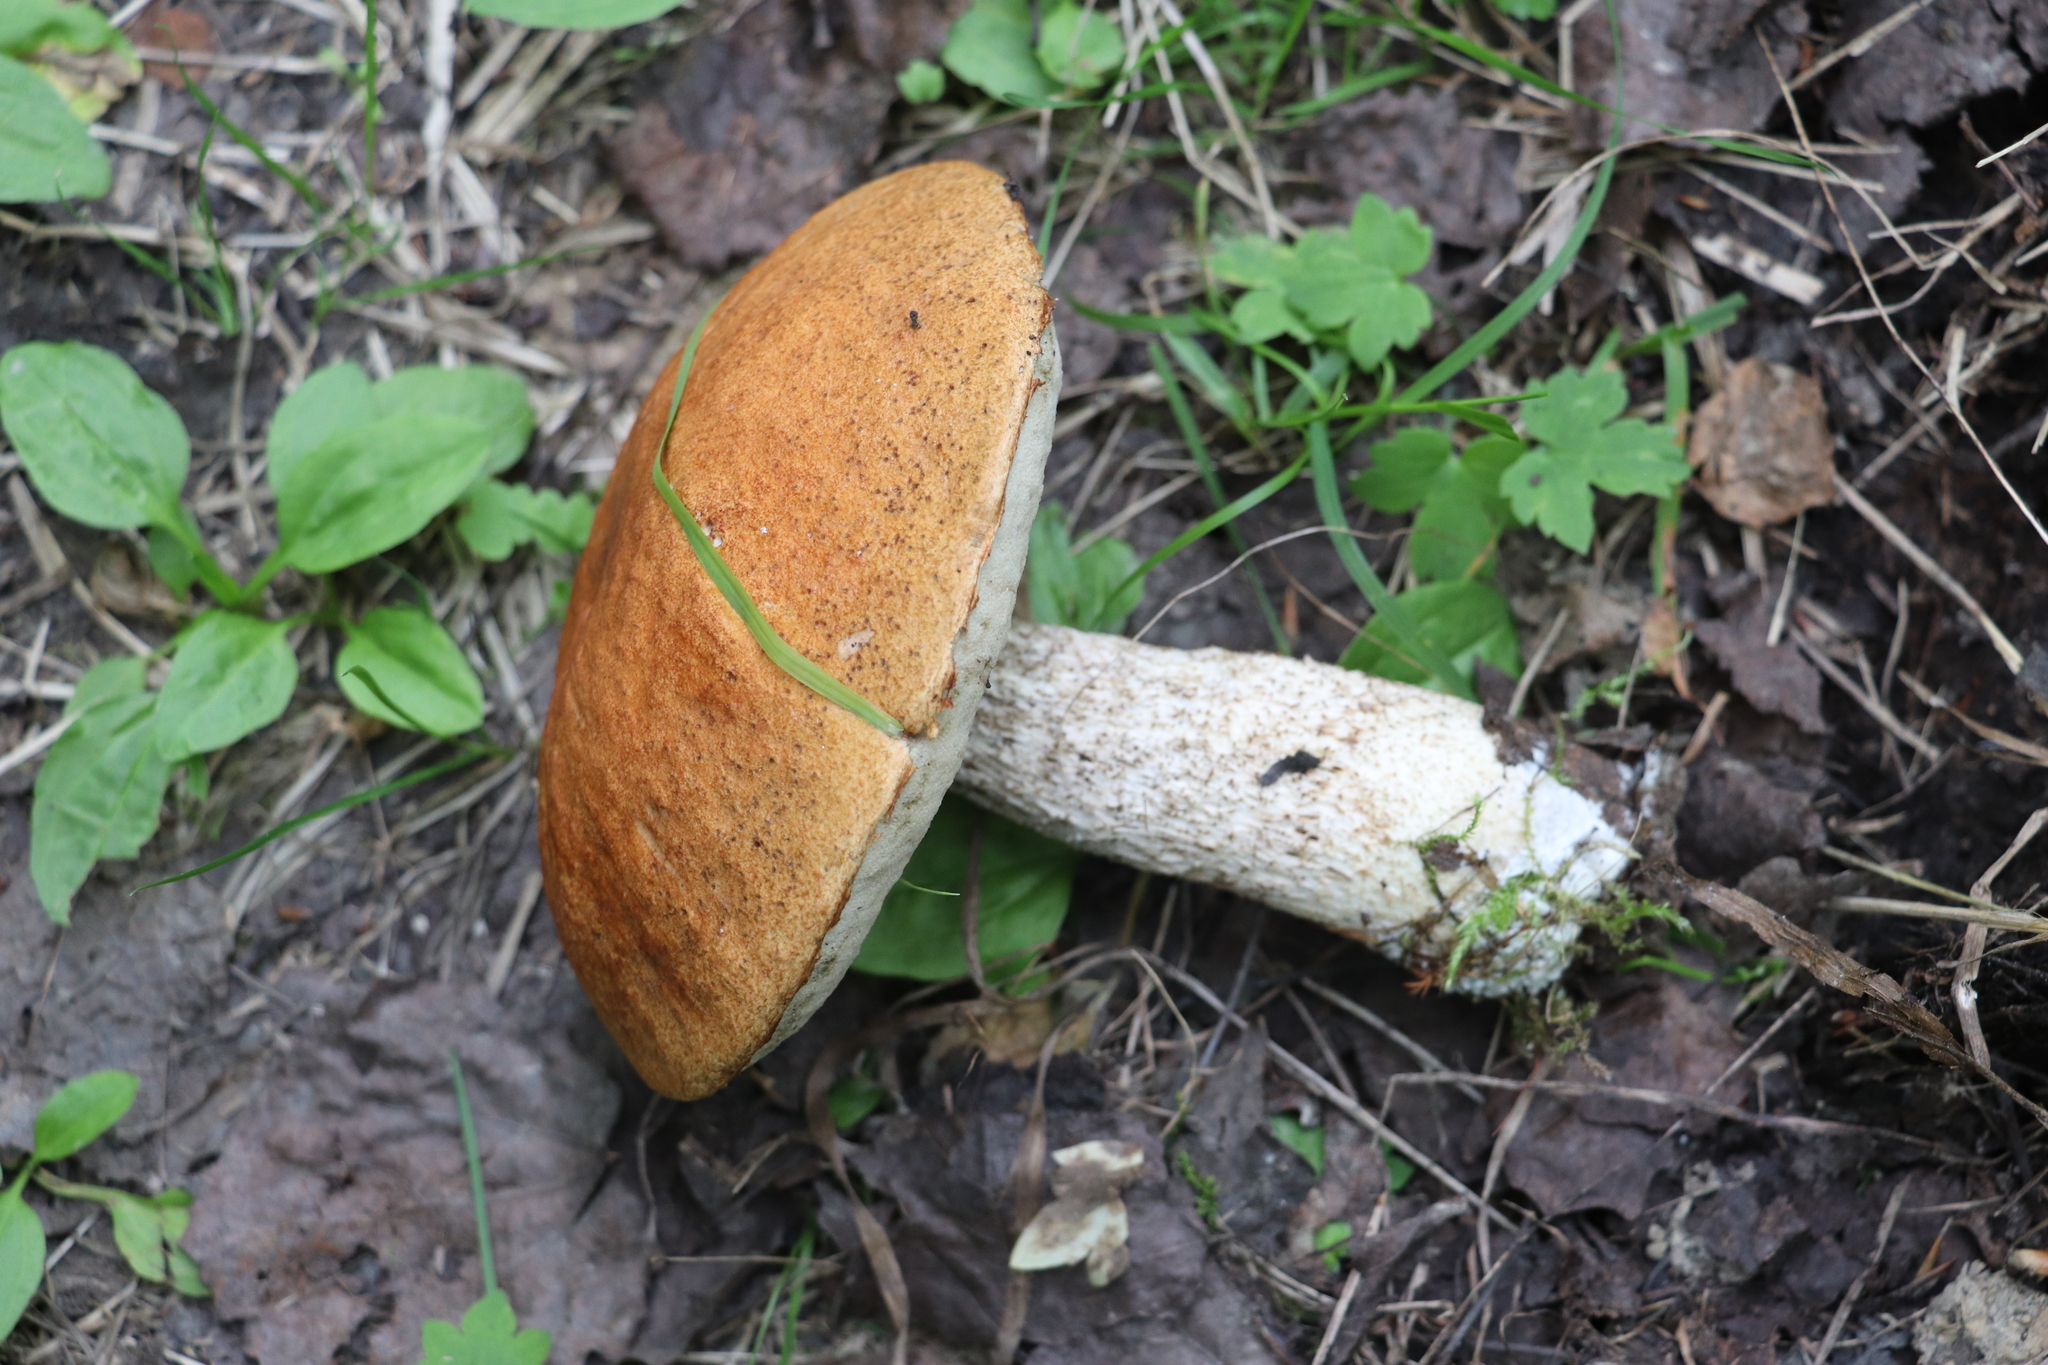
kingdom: Fungi
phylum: Basidiomycota
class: Agaricomycetes
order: Boletales
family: Boletaceae
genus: Leccinum
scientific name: Leccinum albostipitatum
